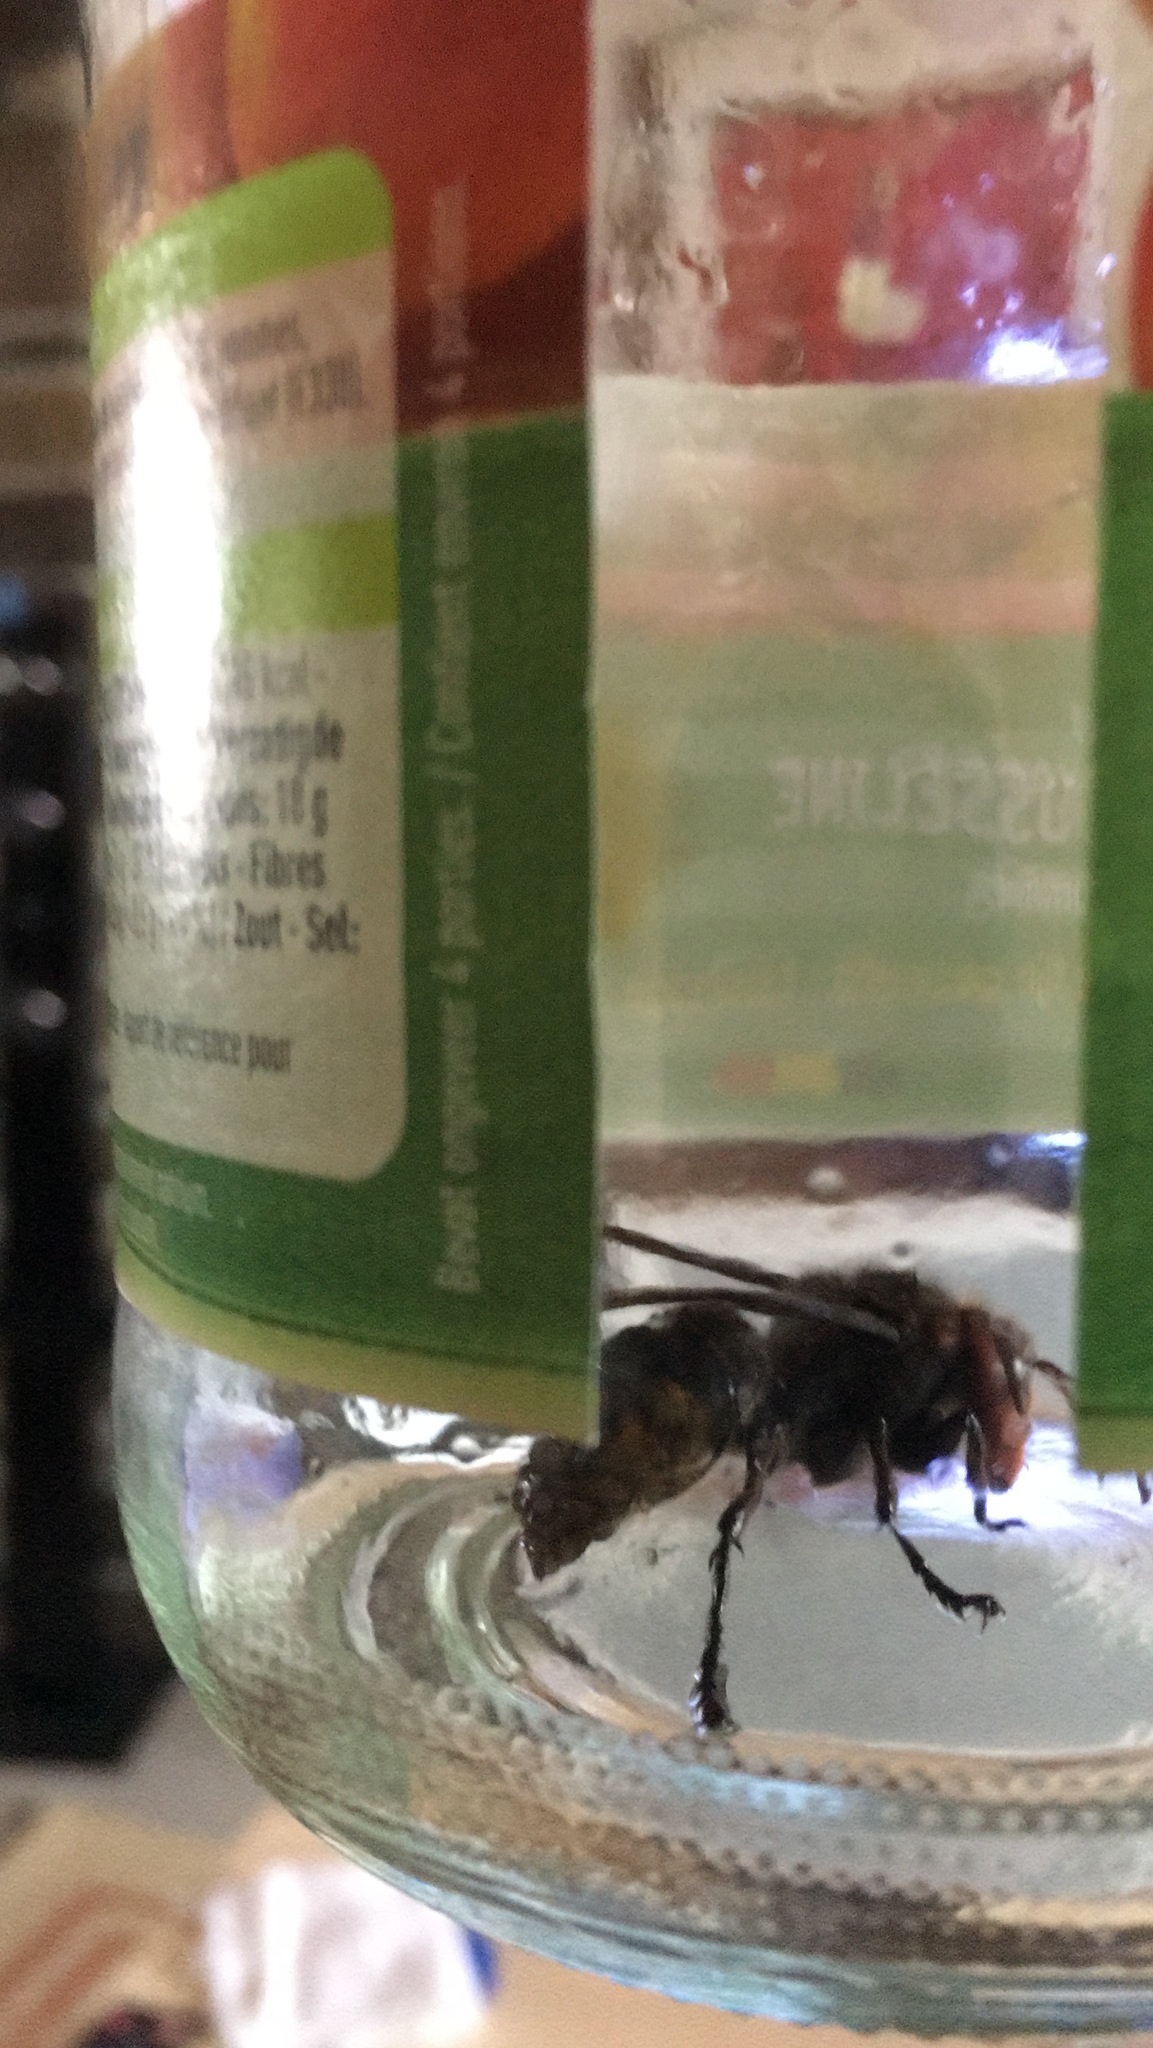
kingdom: Animalia
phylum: Arthropoda
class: Insecta
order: Hymenoptera
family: Vespidae
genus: Vespa
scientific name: Vespa crabro
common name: Hornet
